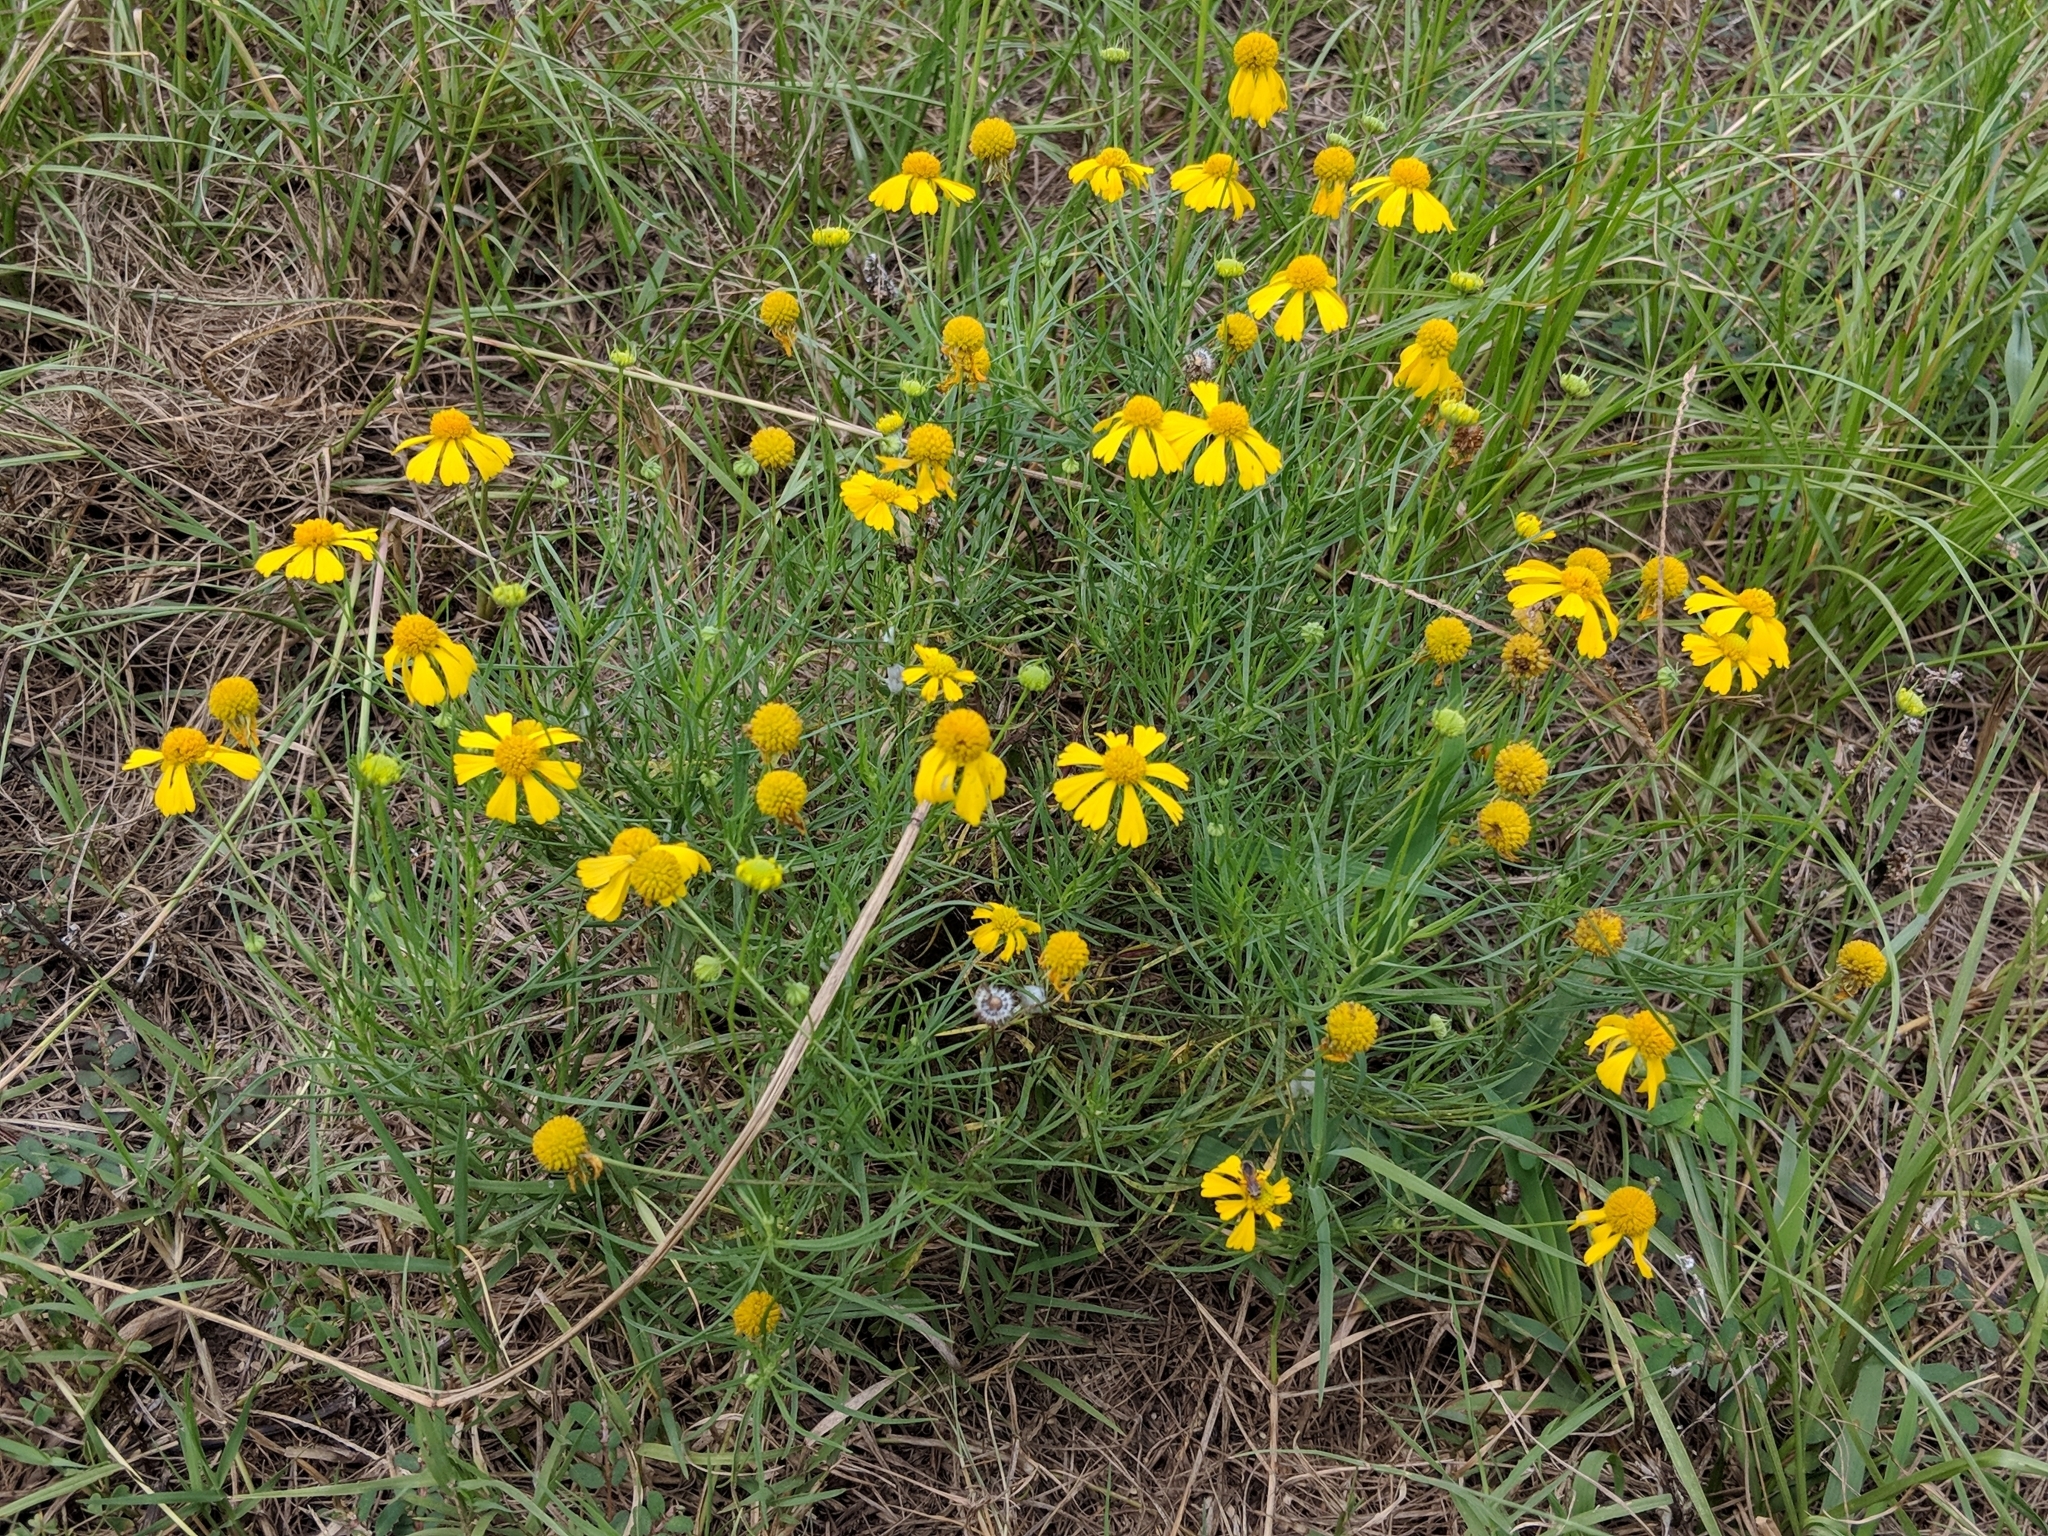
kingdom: Plantae
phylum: Tracheophyta
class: Magnoliopsida
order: Asterales
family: Asteraceae
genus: Helenium
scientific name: Helenium amarum
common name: Bitter sneezeweed
